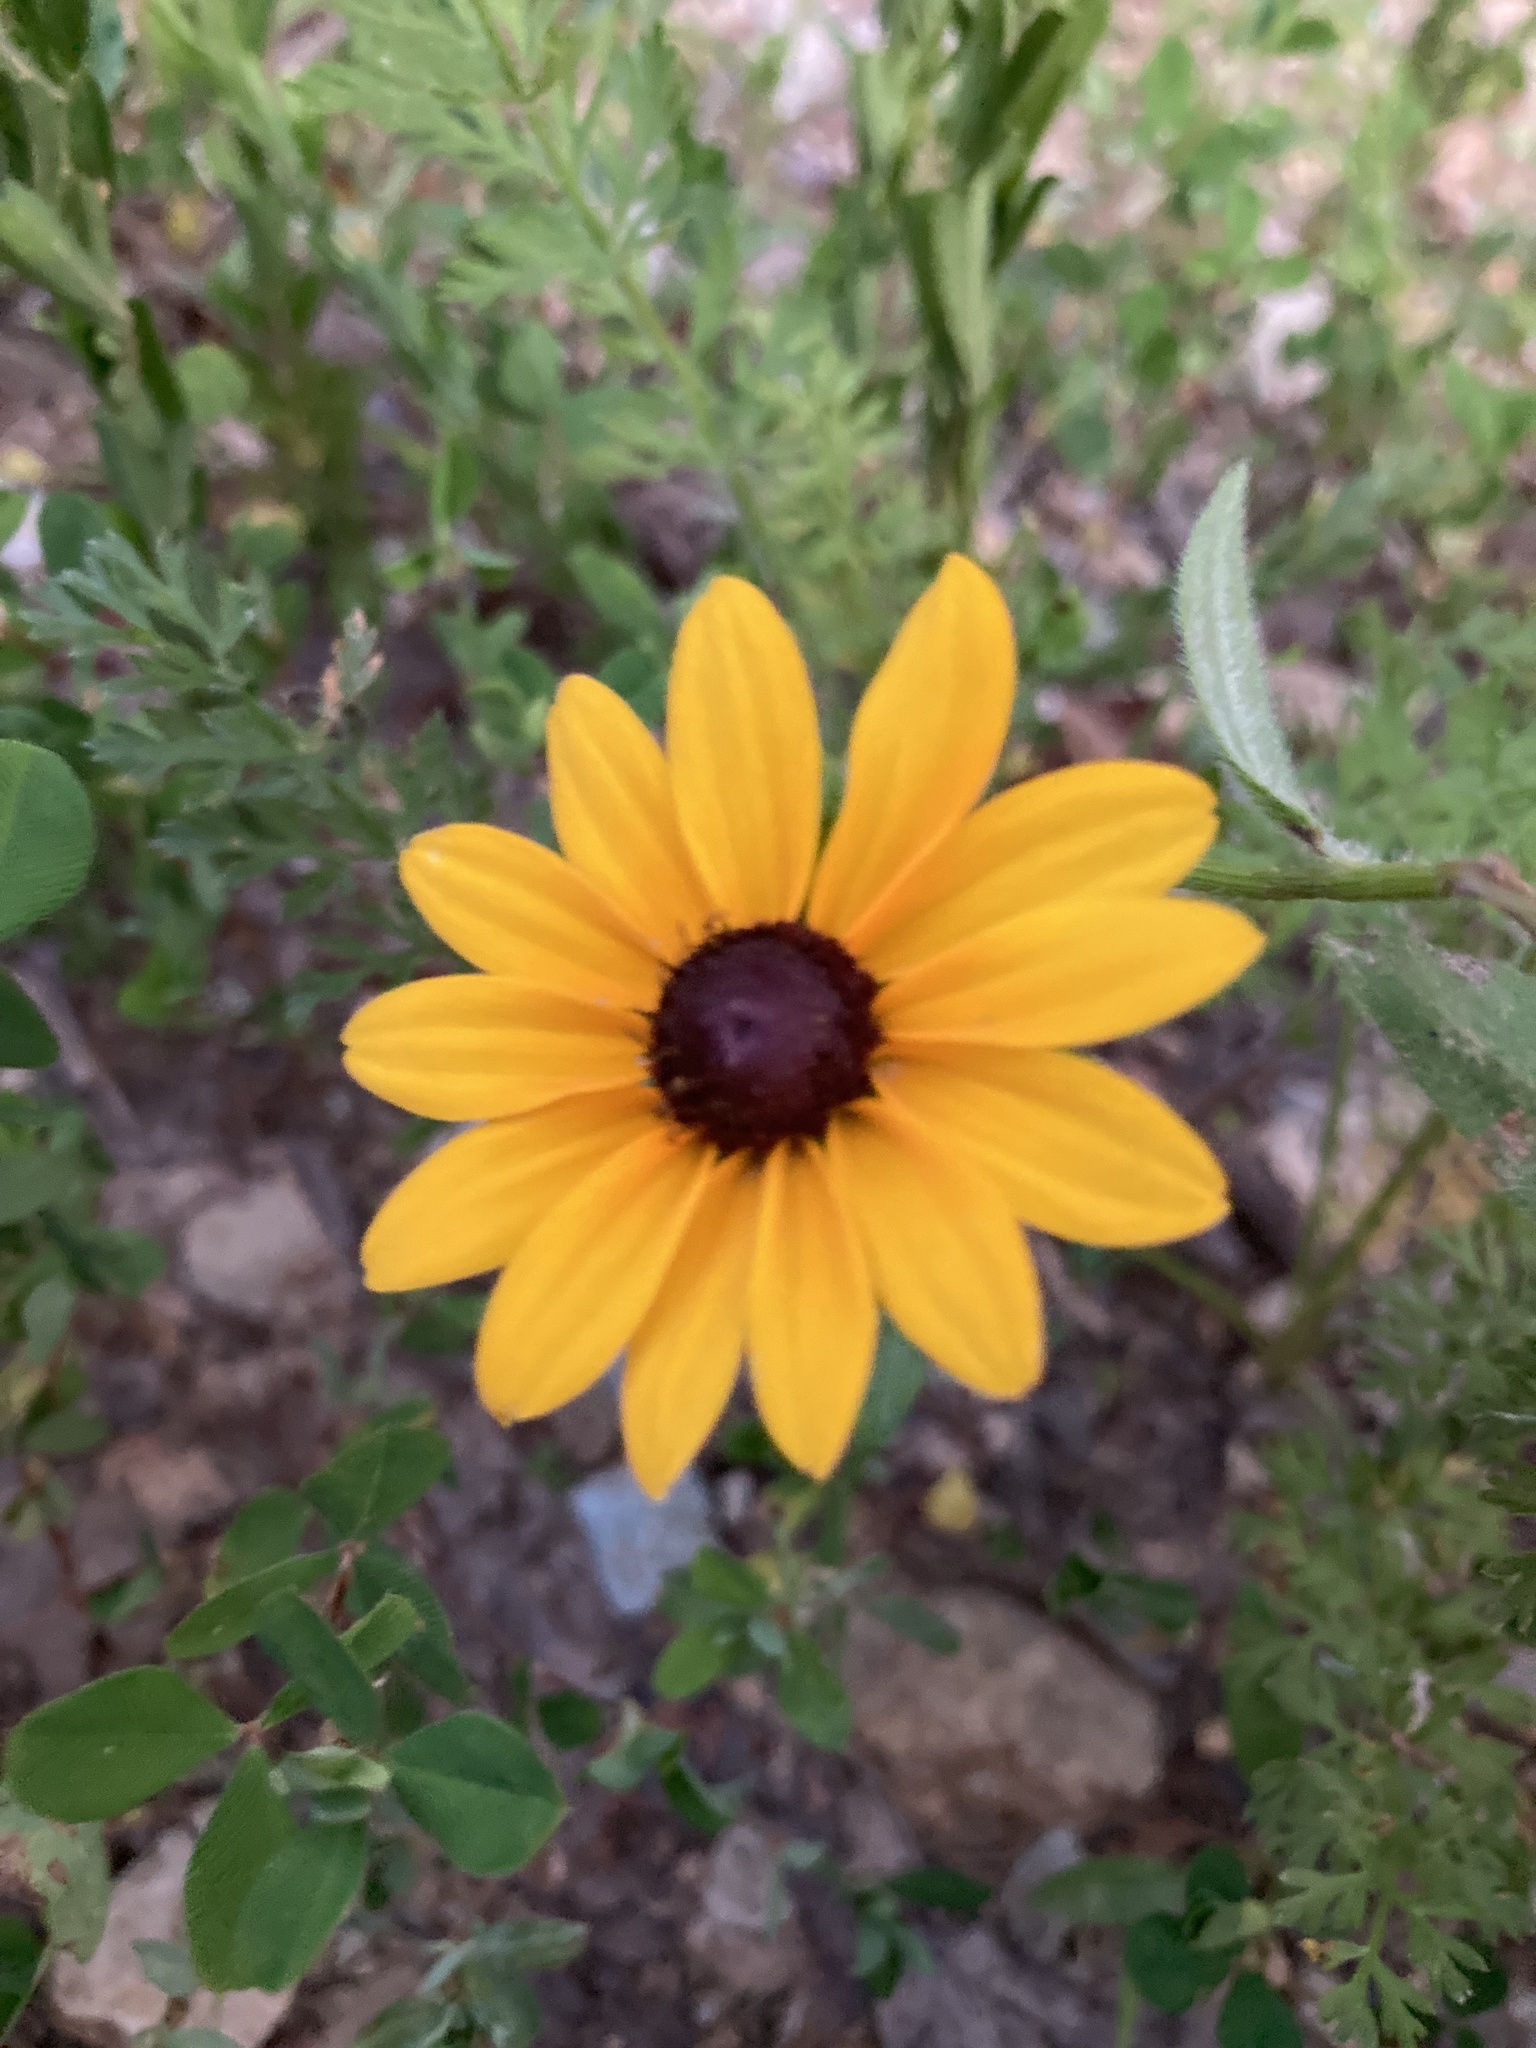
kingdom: Plantae
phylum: Tracheophyta
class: Magnoliopsida
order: Asterales
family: Asteraceae
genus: Rudbeckia
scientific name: Rudbeckia hirta
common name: Black-eyed-susan
